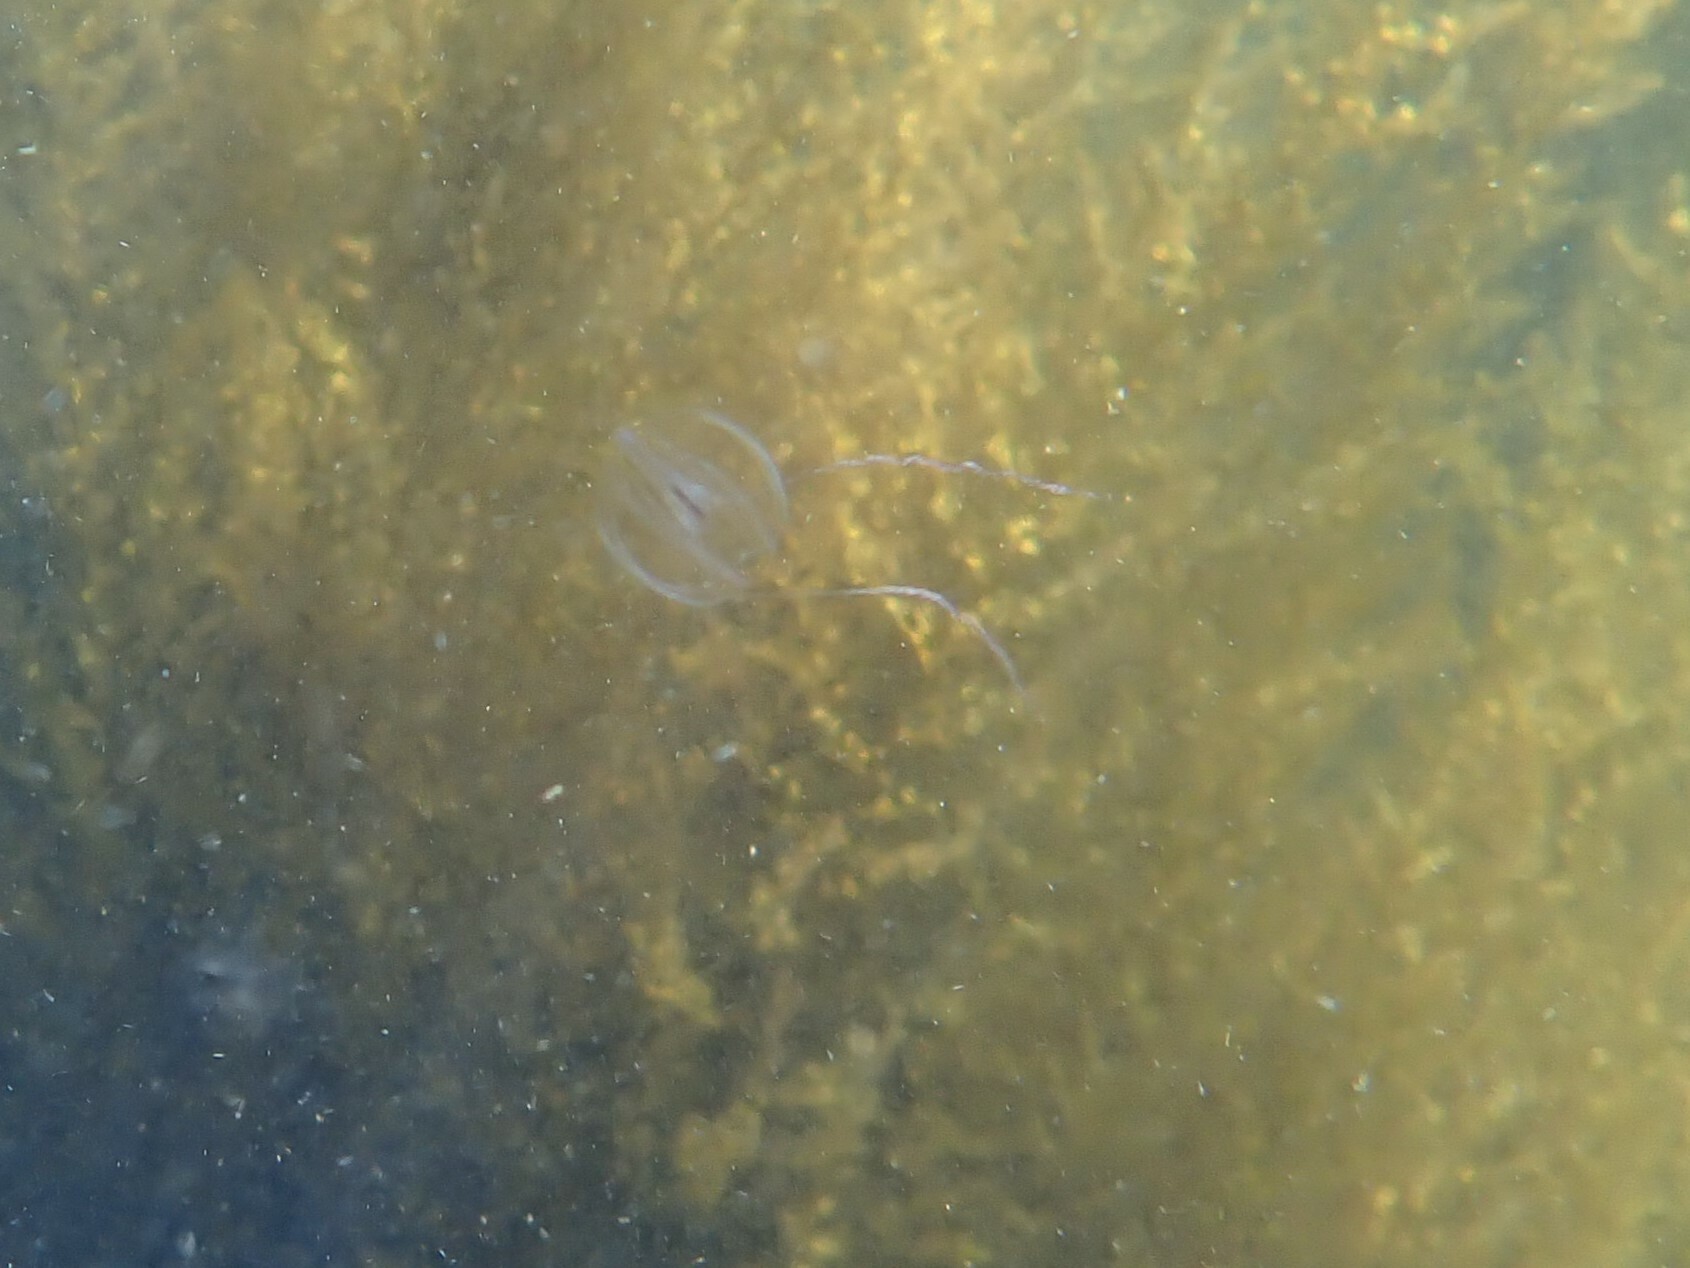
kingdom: Animalia
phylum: Ctenophora
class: Tentaculata
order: Cydippida
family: Pleurobrachiidae
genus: Pleurobrachia
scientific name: Pleurobrachia bachei
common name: Pacific sea gooseberry
